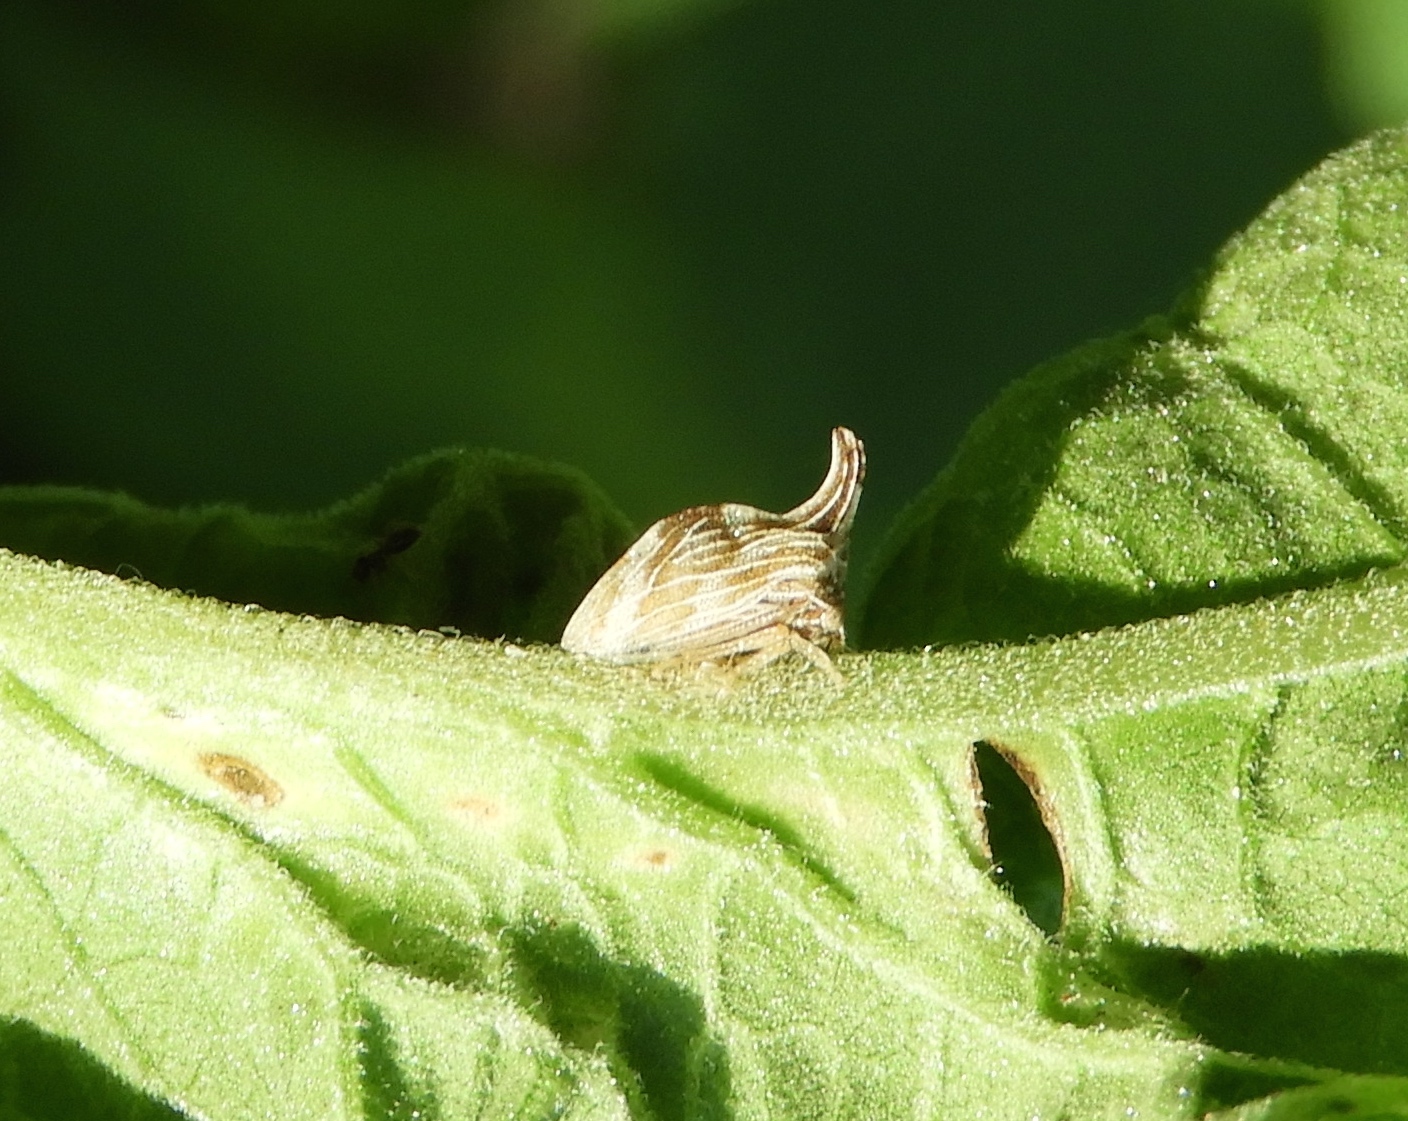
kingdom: Animalia
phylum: Arthropoda
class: Insecta
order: Hemiptera
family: Membracidae
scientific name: Membracidae
